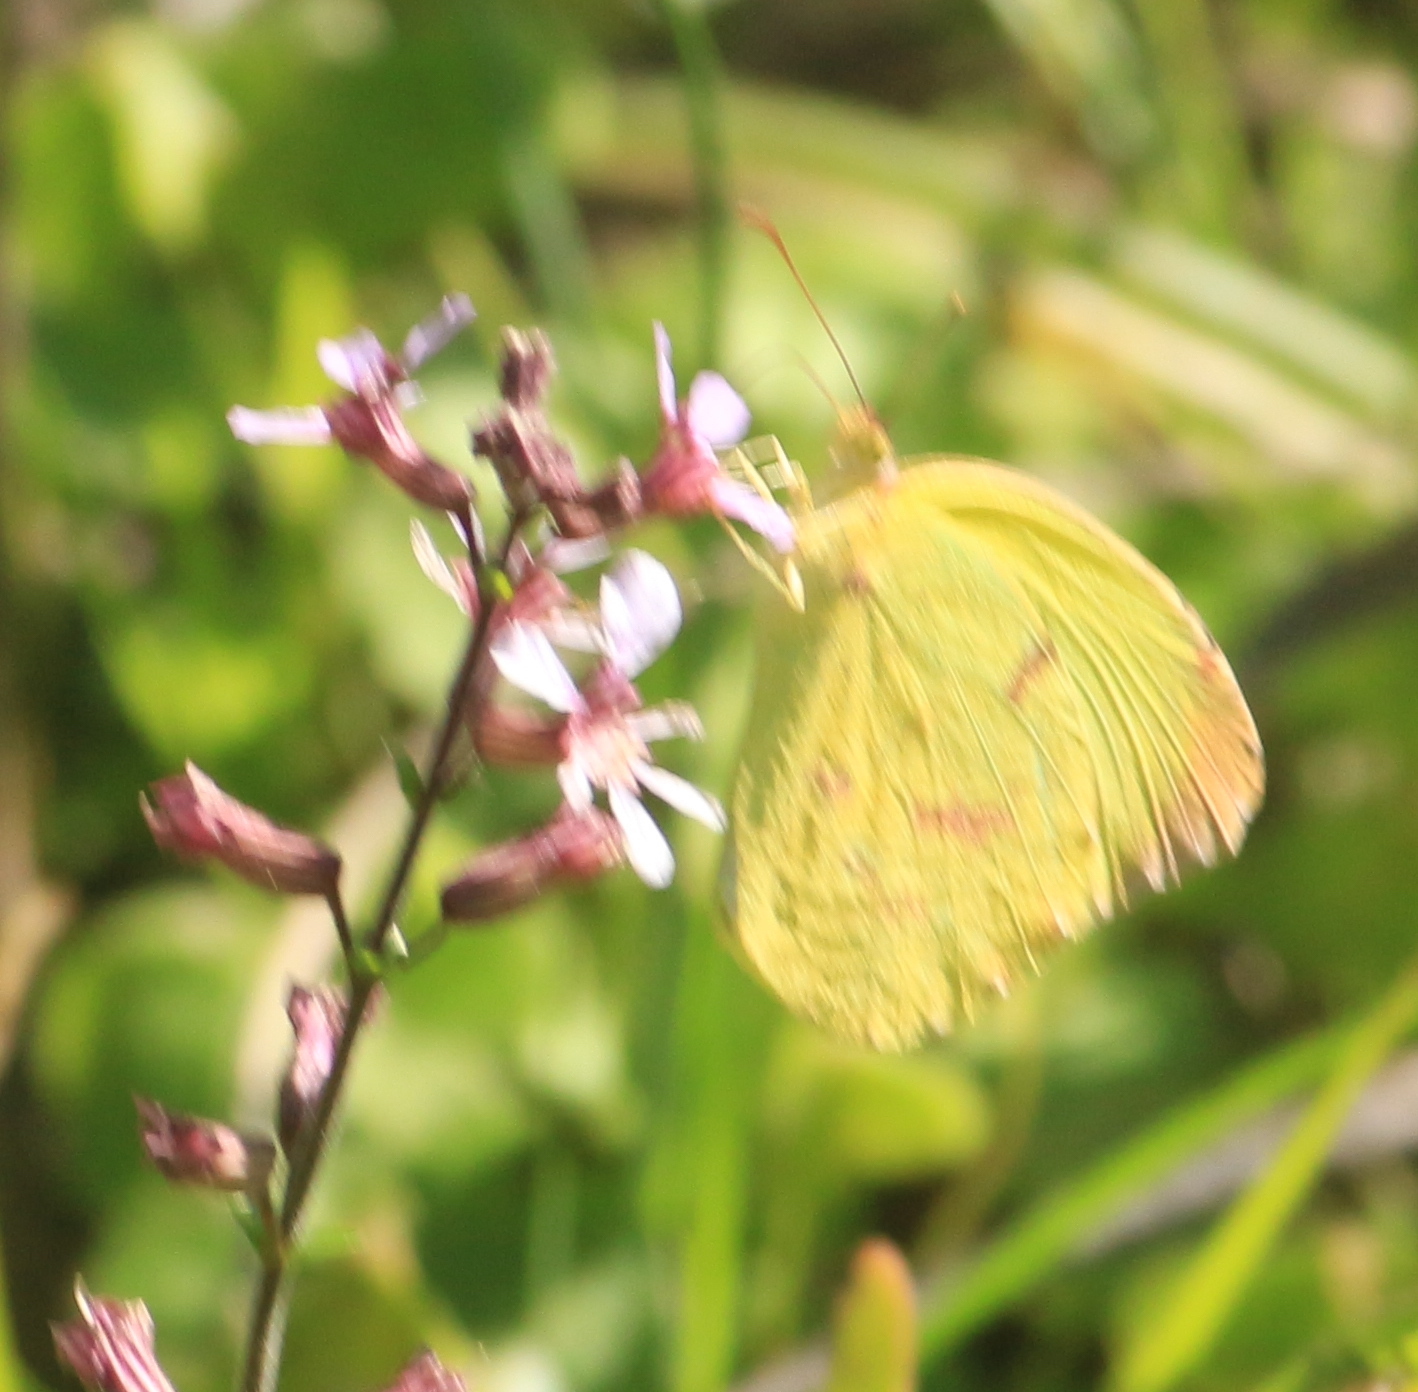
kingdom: Animalia
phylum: Arthropoda
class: Insecta
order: Lepidoptera
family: Pieridae
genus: Teriocolias
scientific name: Teriocolias
